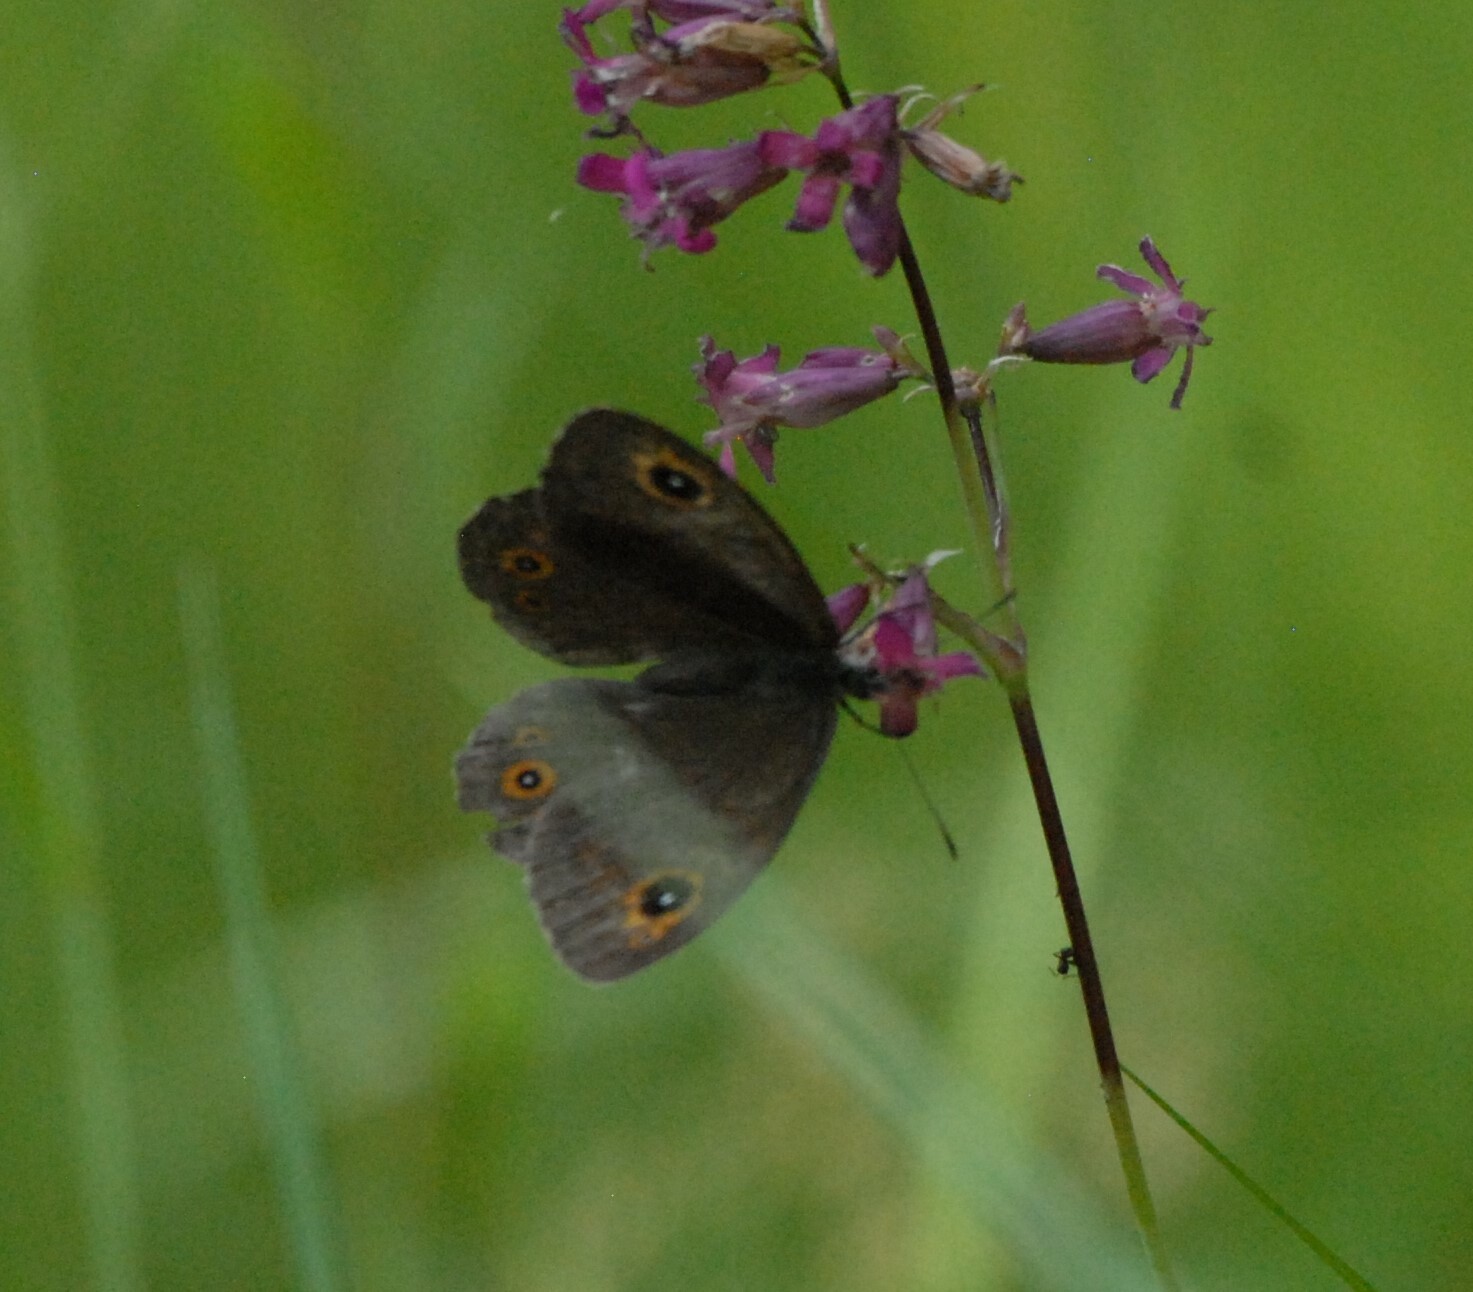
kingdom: Animalia
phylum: Arthropoda
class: Insecta
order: Lepidoptera
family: Nymphalidae
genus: Pararge
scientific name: Pararge Lasiommata maera
